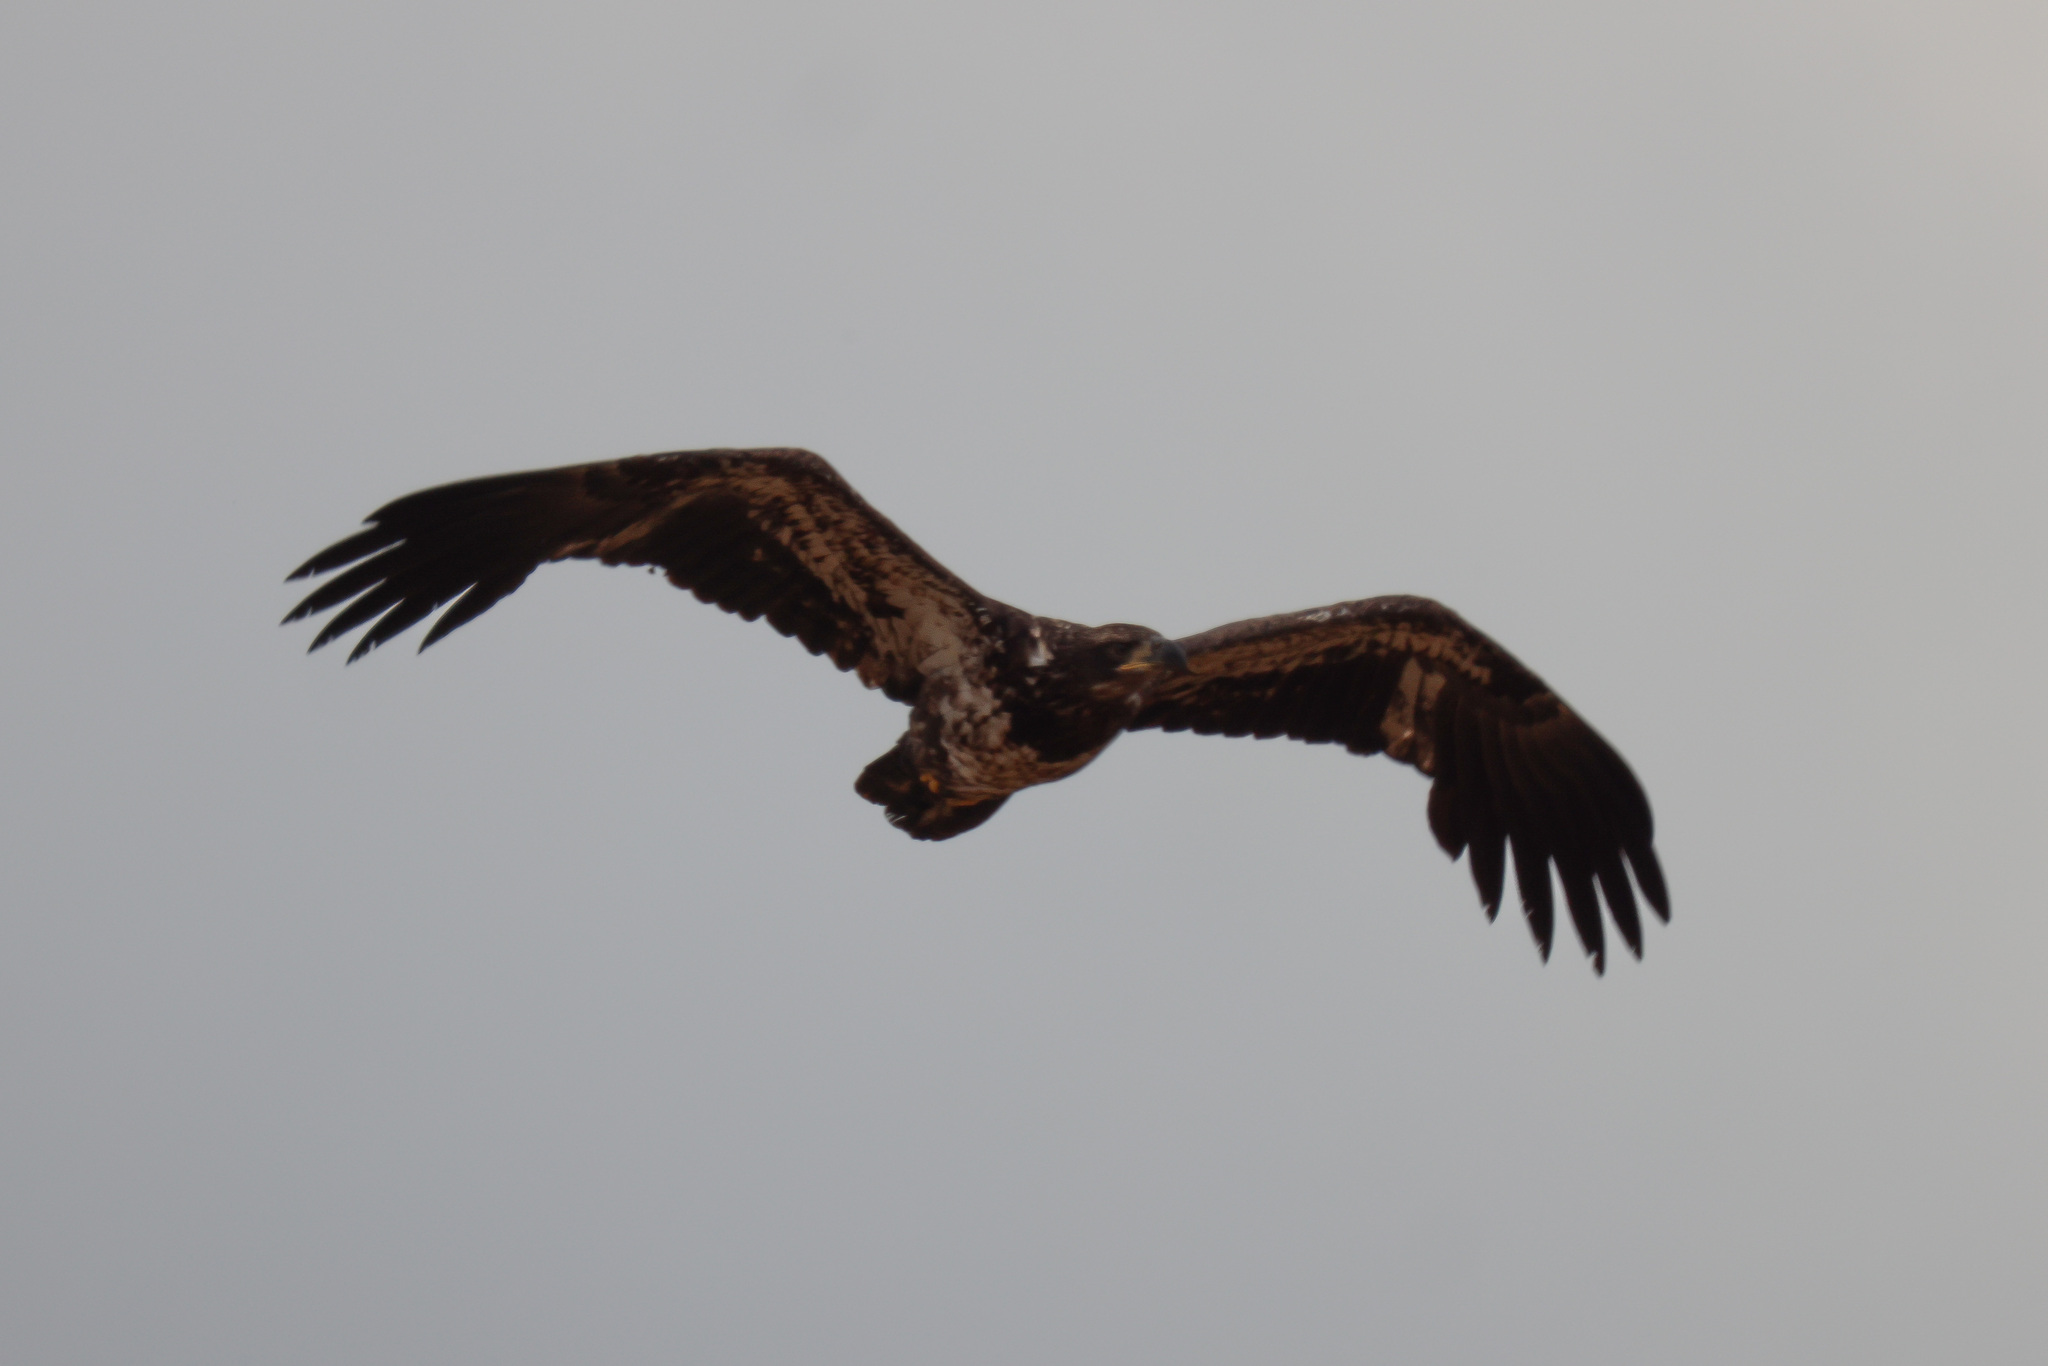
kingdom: Animalia
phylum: Chordata
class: Aves
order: Accipitriformes
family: Accipitridae
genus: Haliaeetus
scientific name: Haliaeetus leucocephalus
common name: Bald eagle
